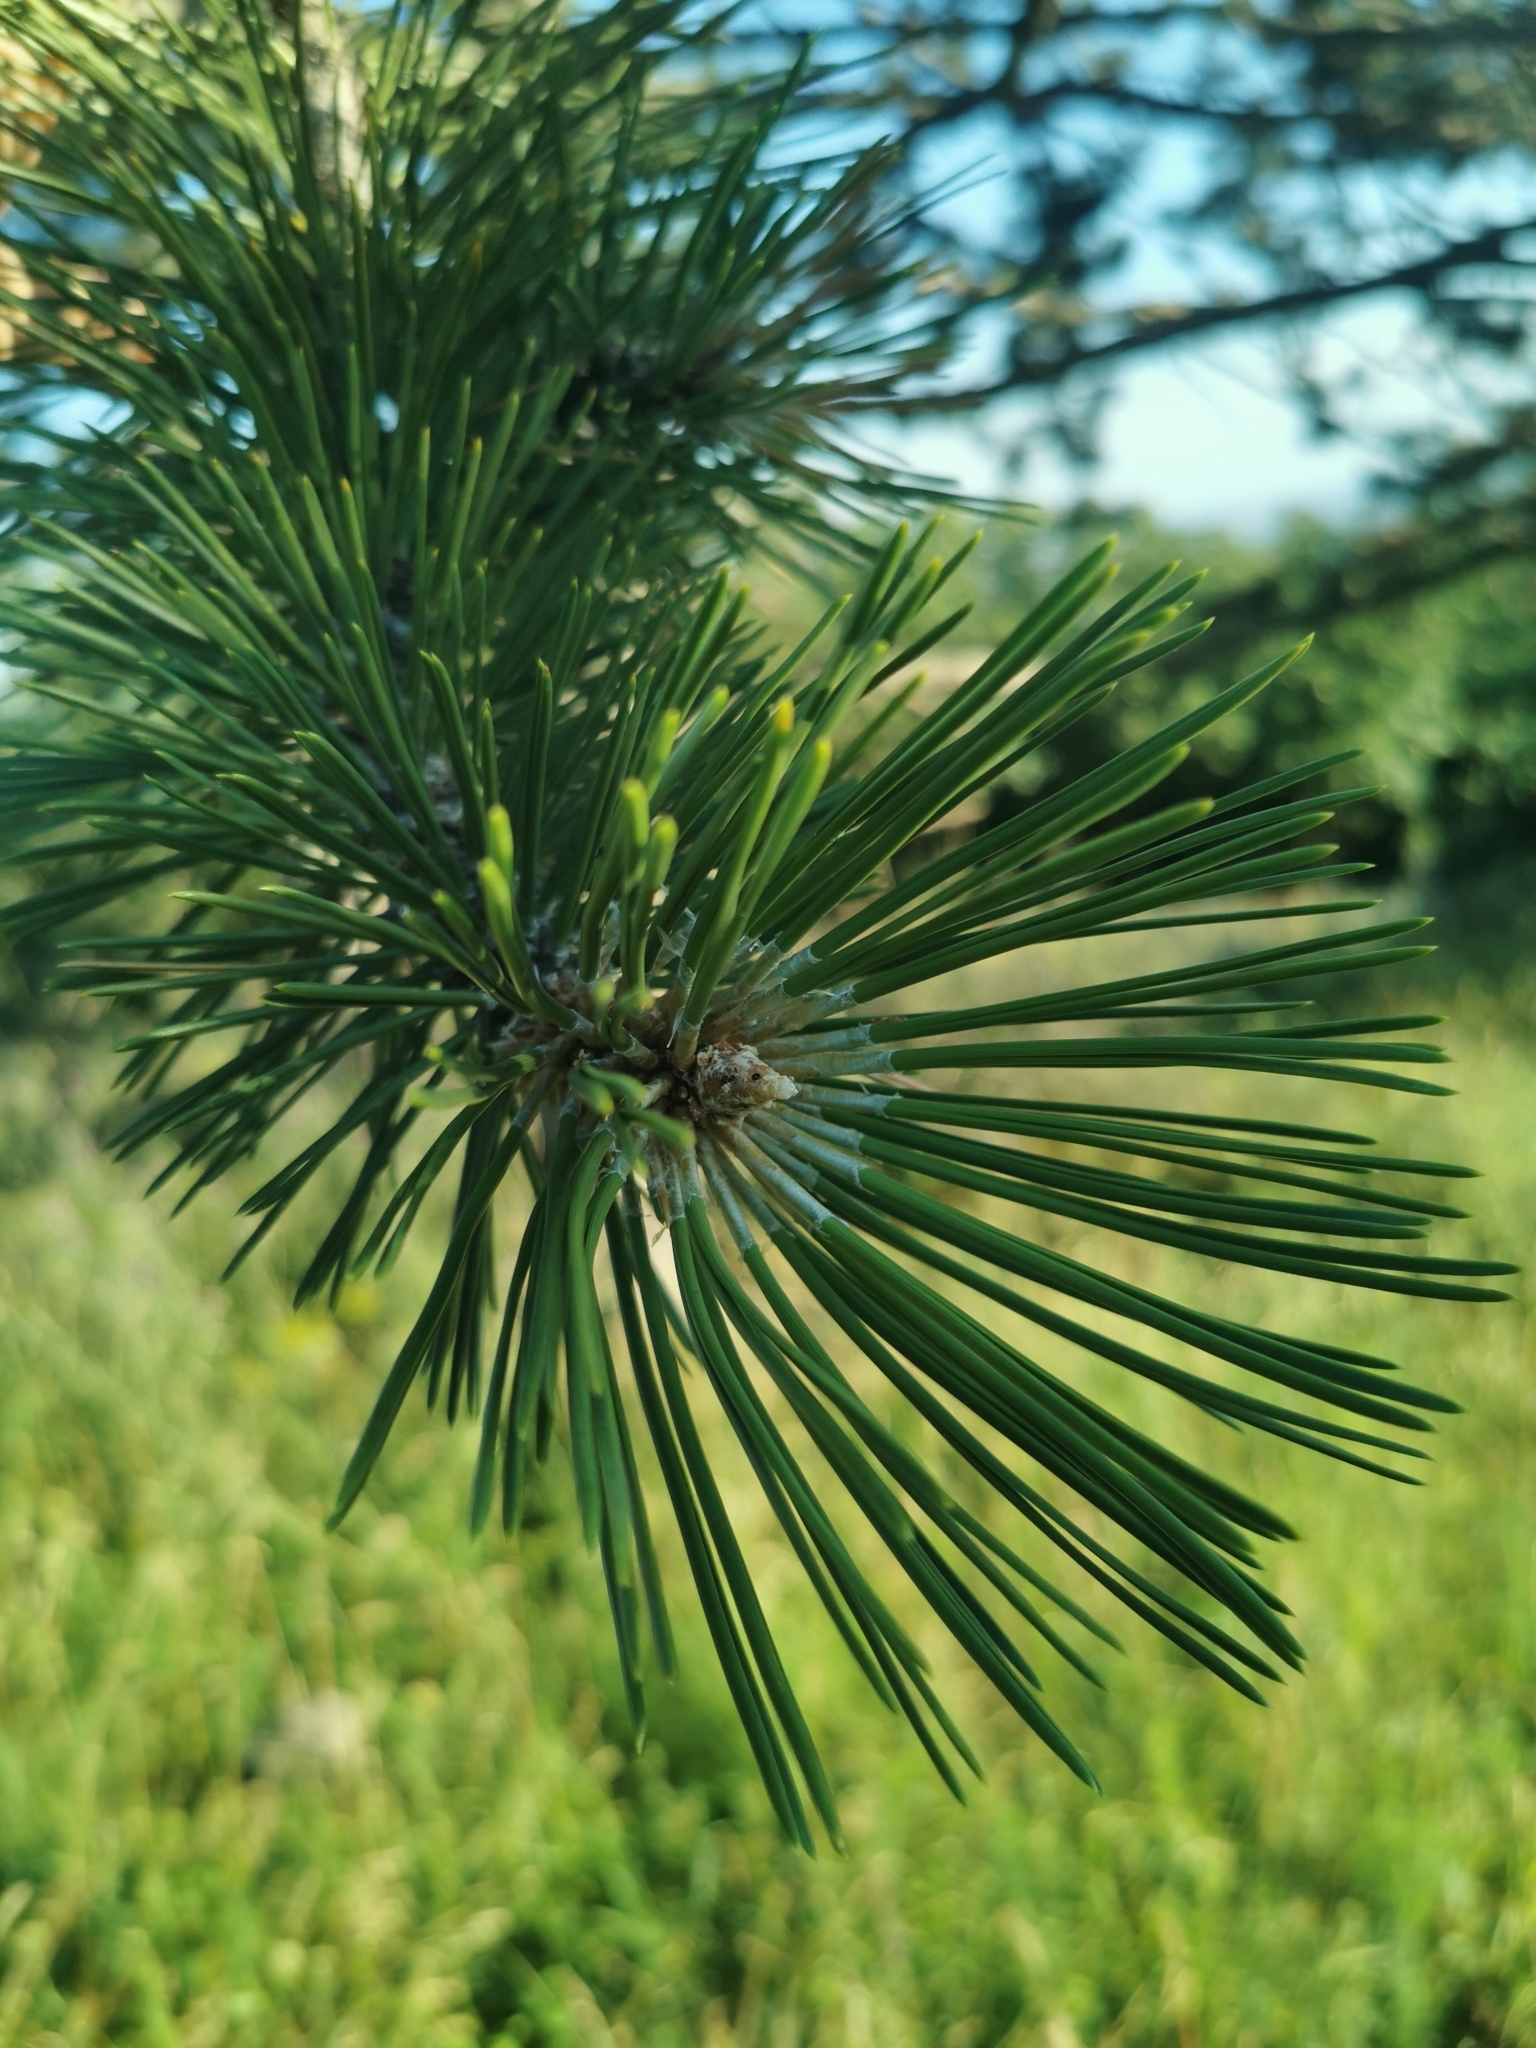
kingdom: Plantae
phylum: Tracheophyta
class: Pinopsida
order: Pinales
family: Pinaceae
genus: Pinus
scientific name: Pinus nigra
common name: Austrian pine
